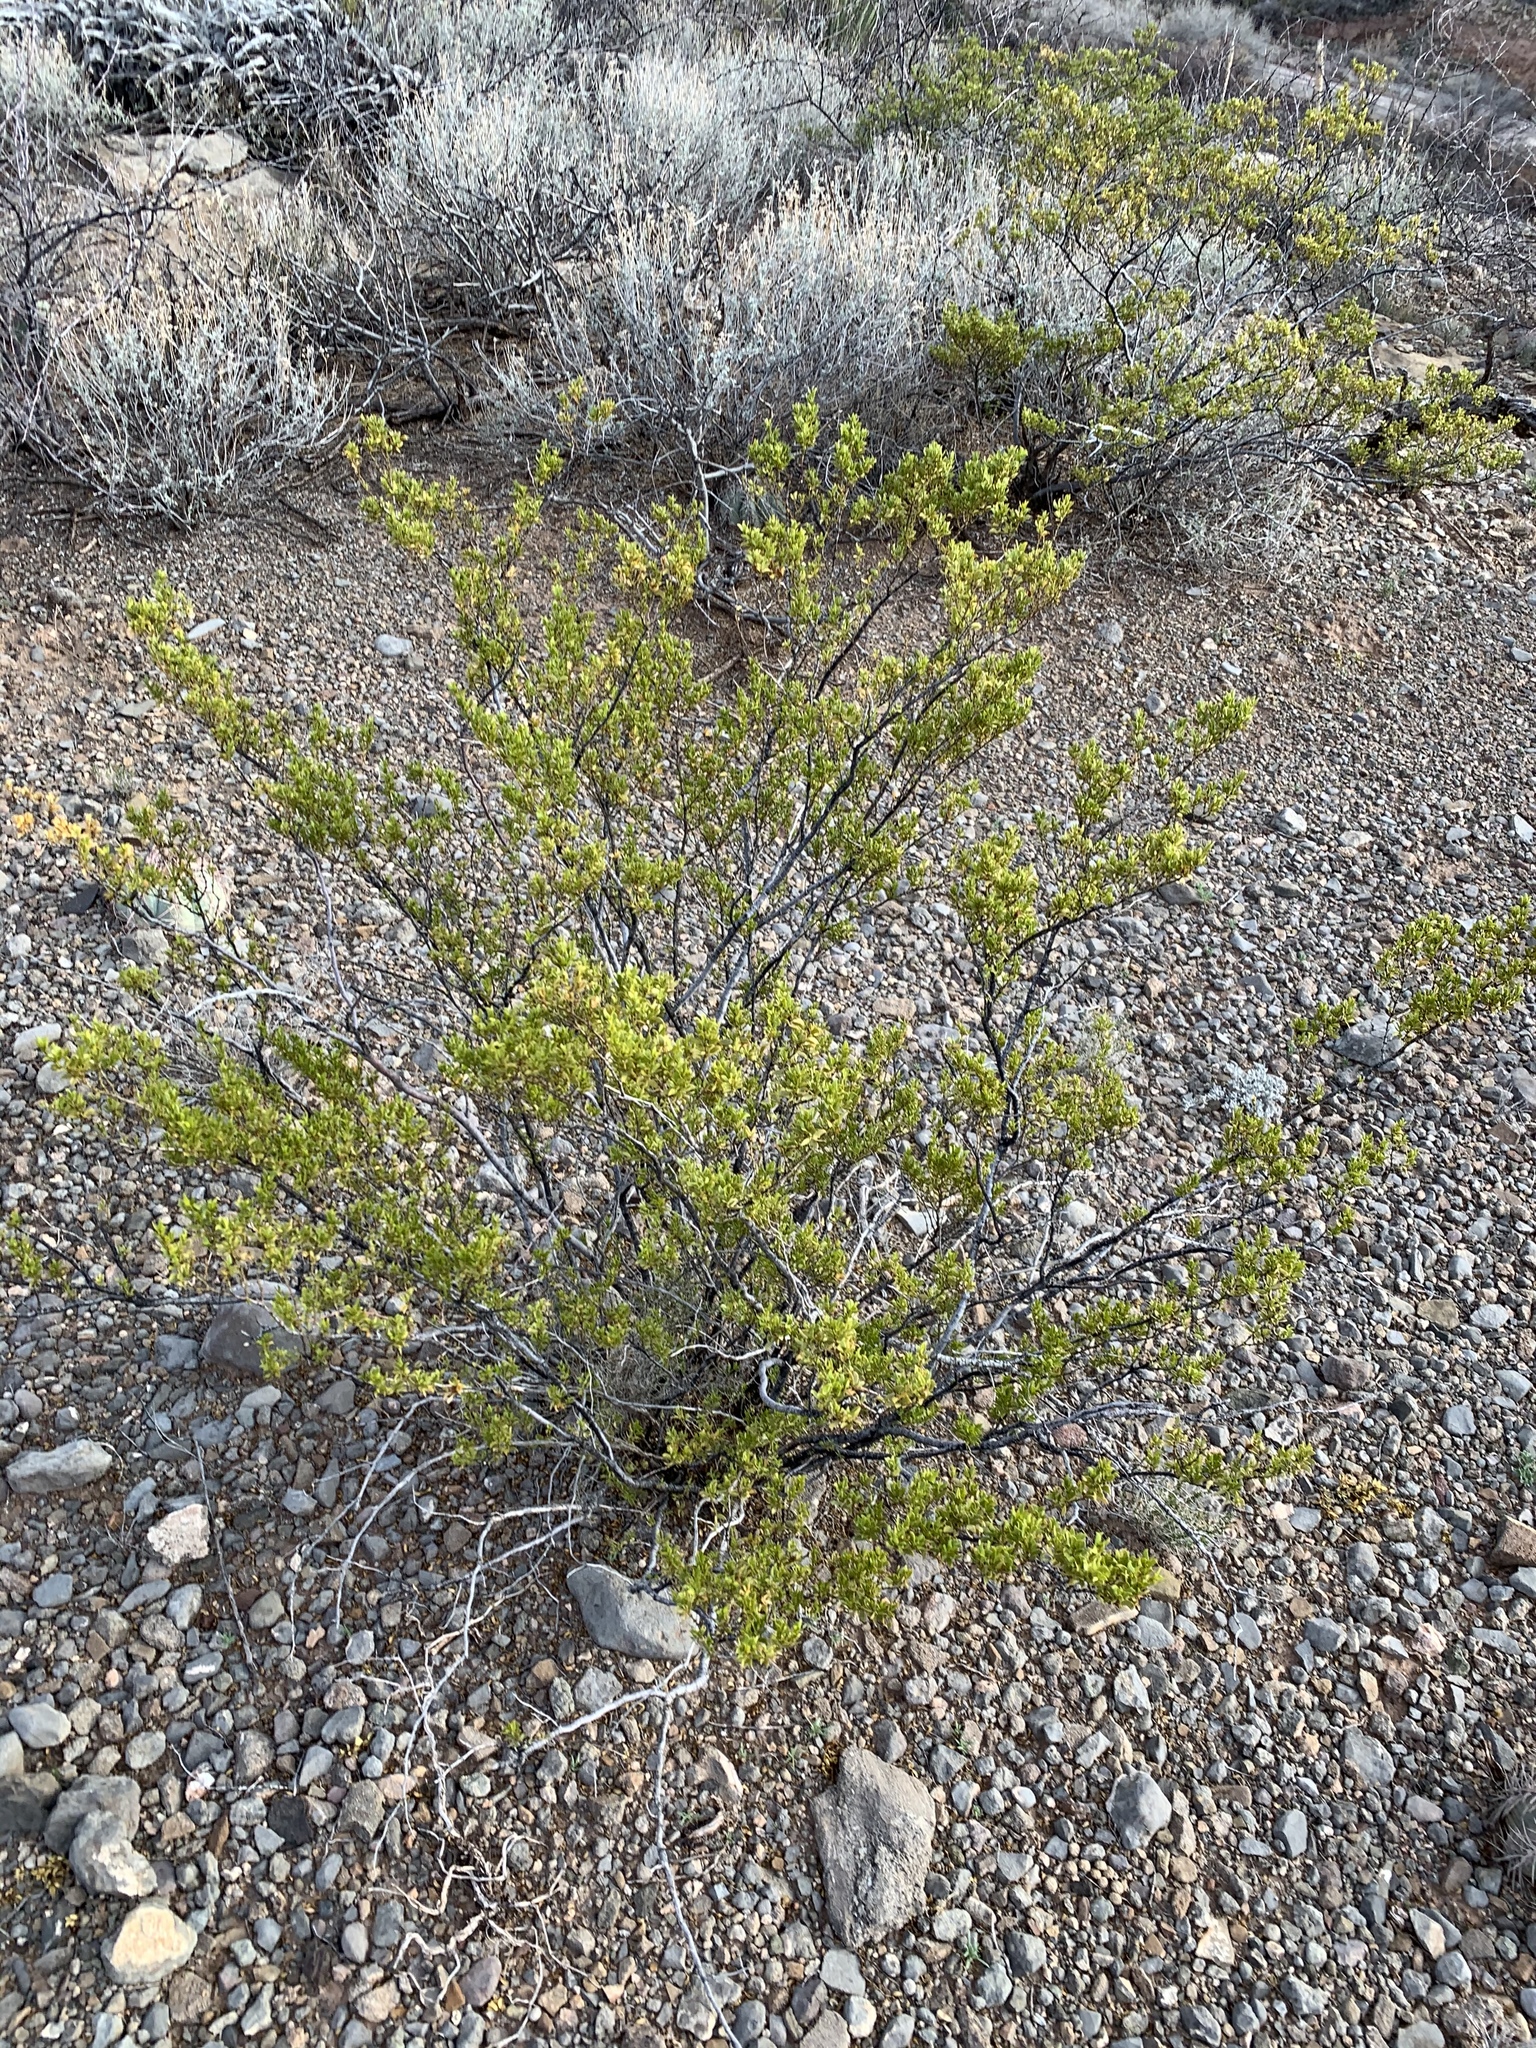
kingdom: Plantae
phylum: Tracheophyta
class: Magnoliopsida
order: Zygophyllales
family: Zygophyllaceae
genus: Larrea
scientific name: Larrea tridentata
